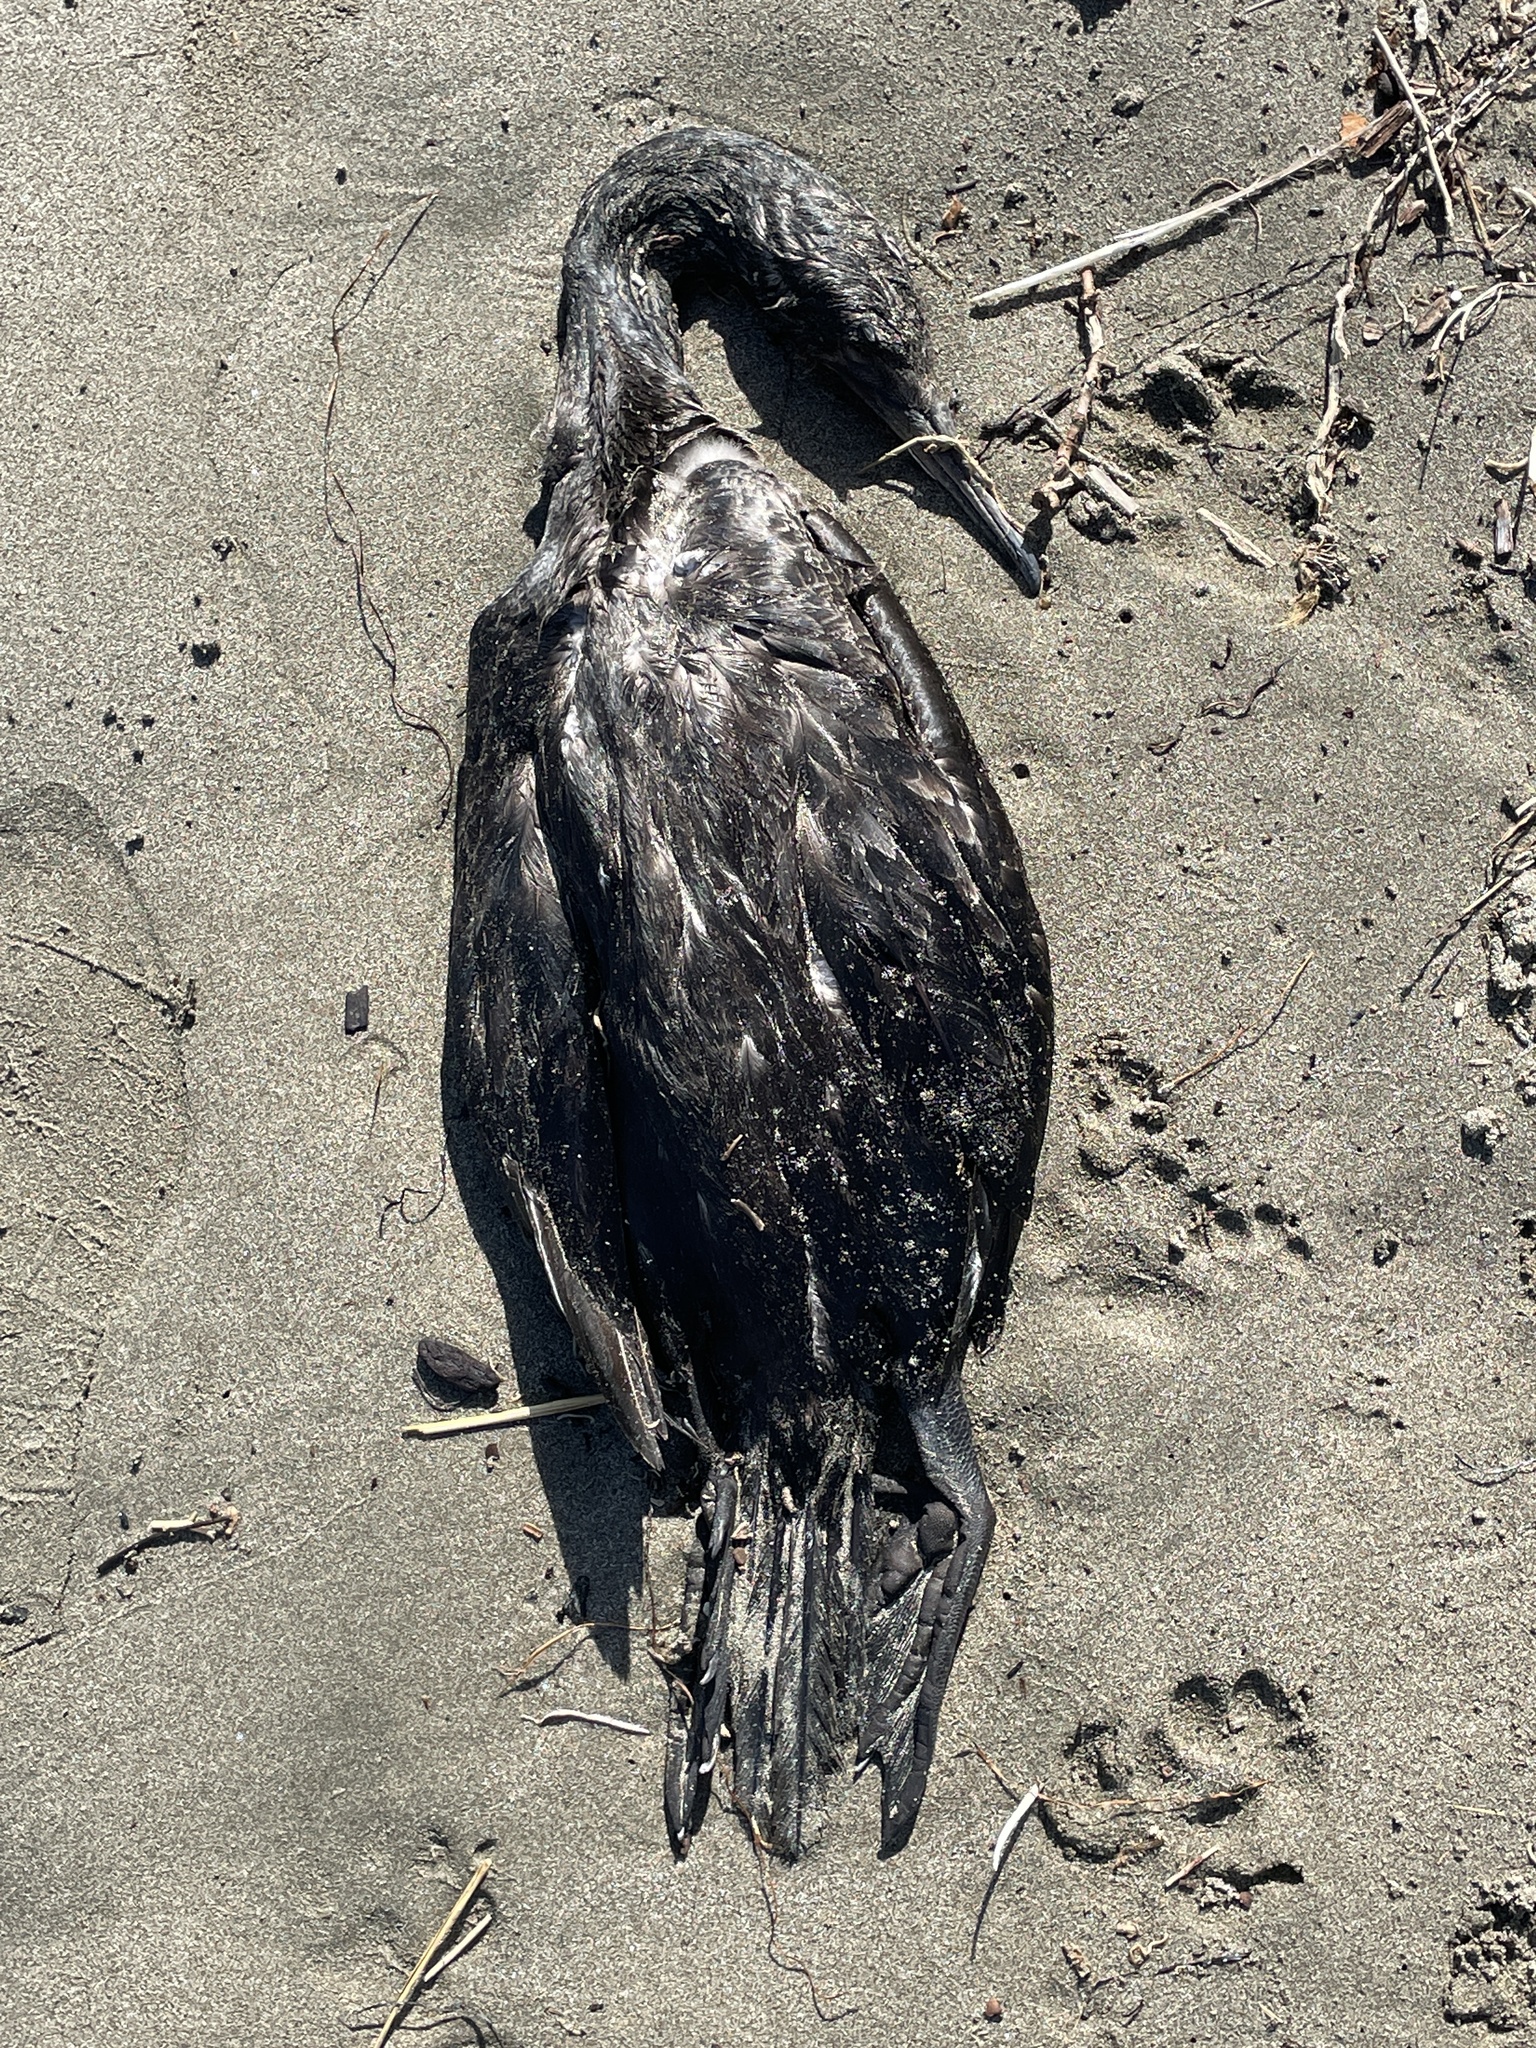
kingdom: Animalia
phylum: Chordata
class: Aves
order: Suliformes
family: Phalacrocoracidae
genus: Urile
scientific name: Urile penicillatus
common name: Brandt's cormorant
